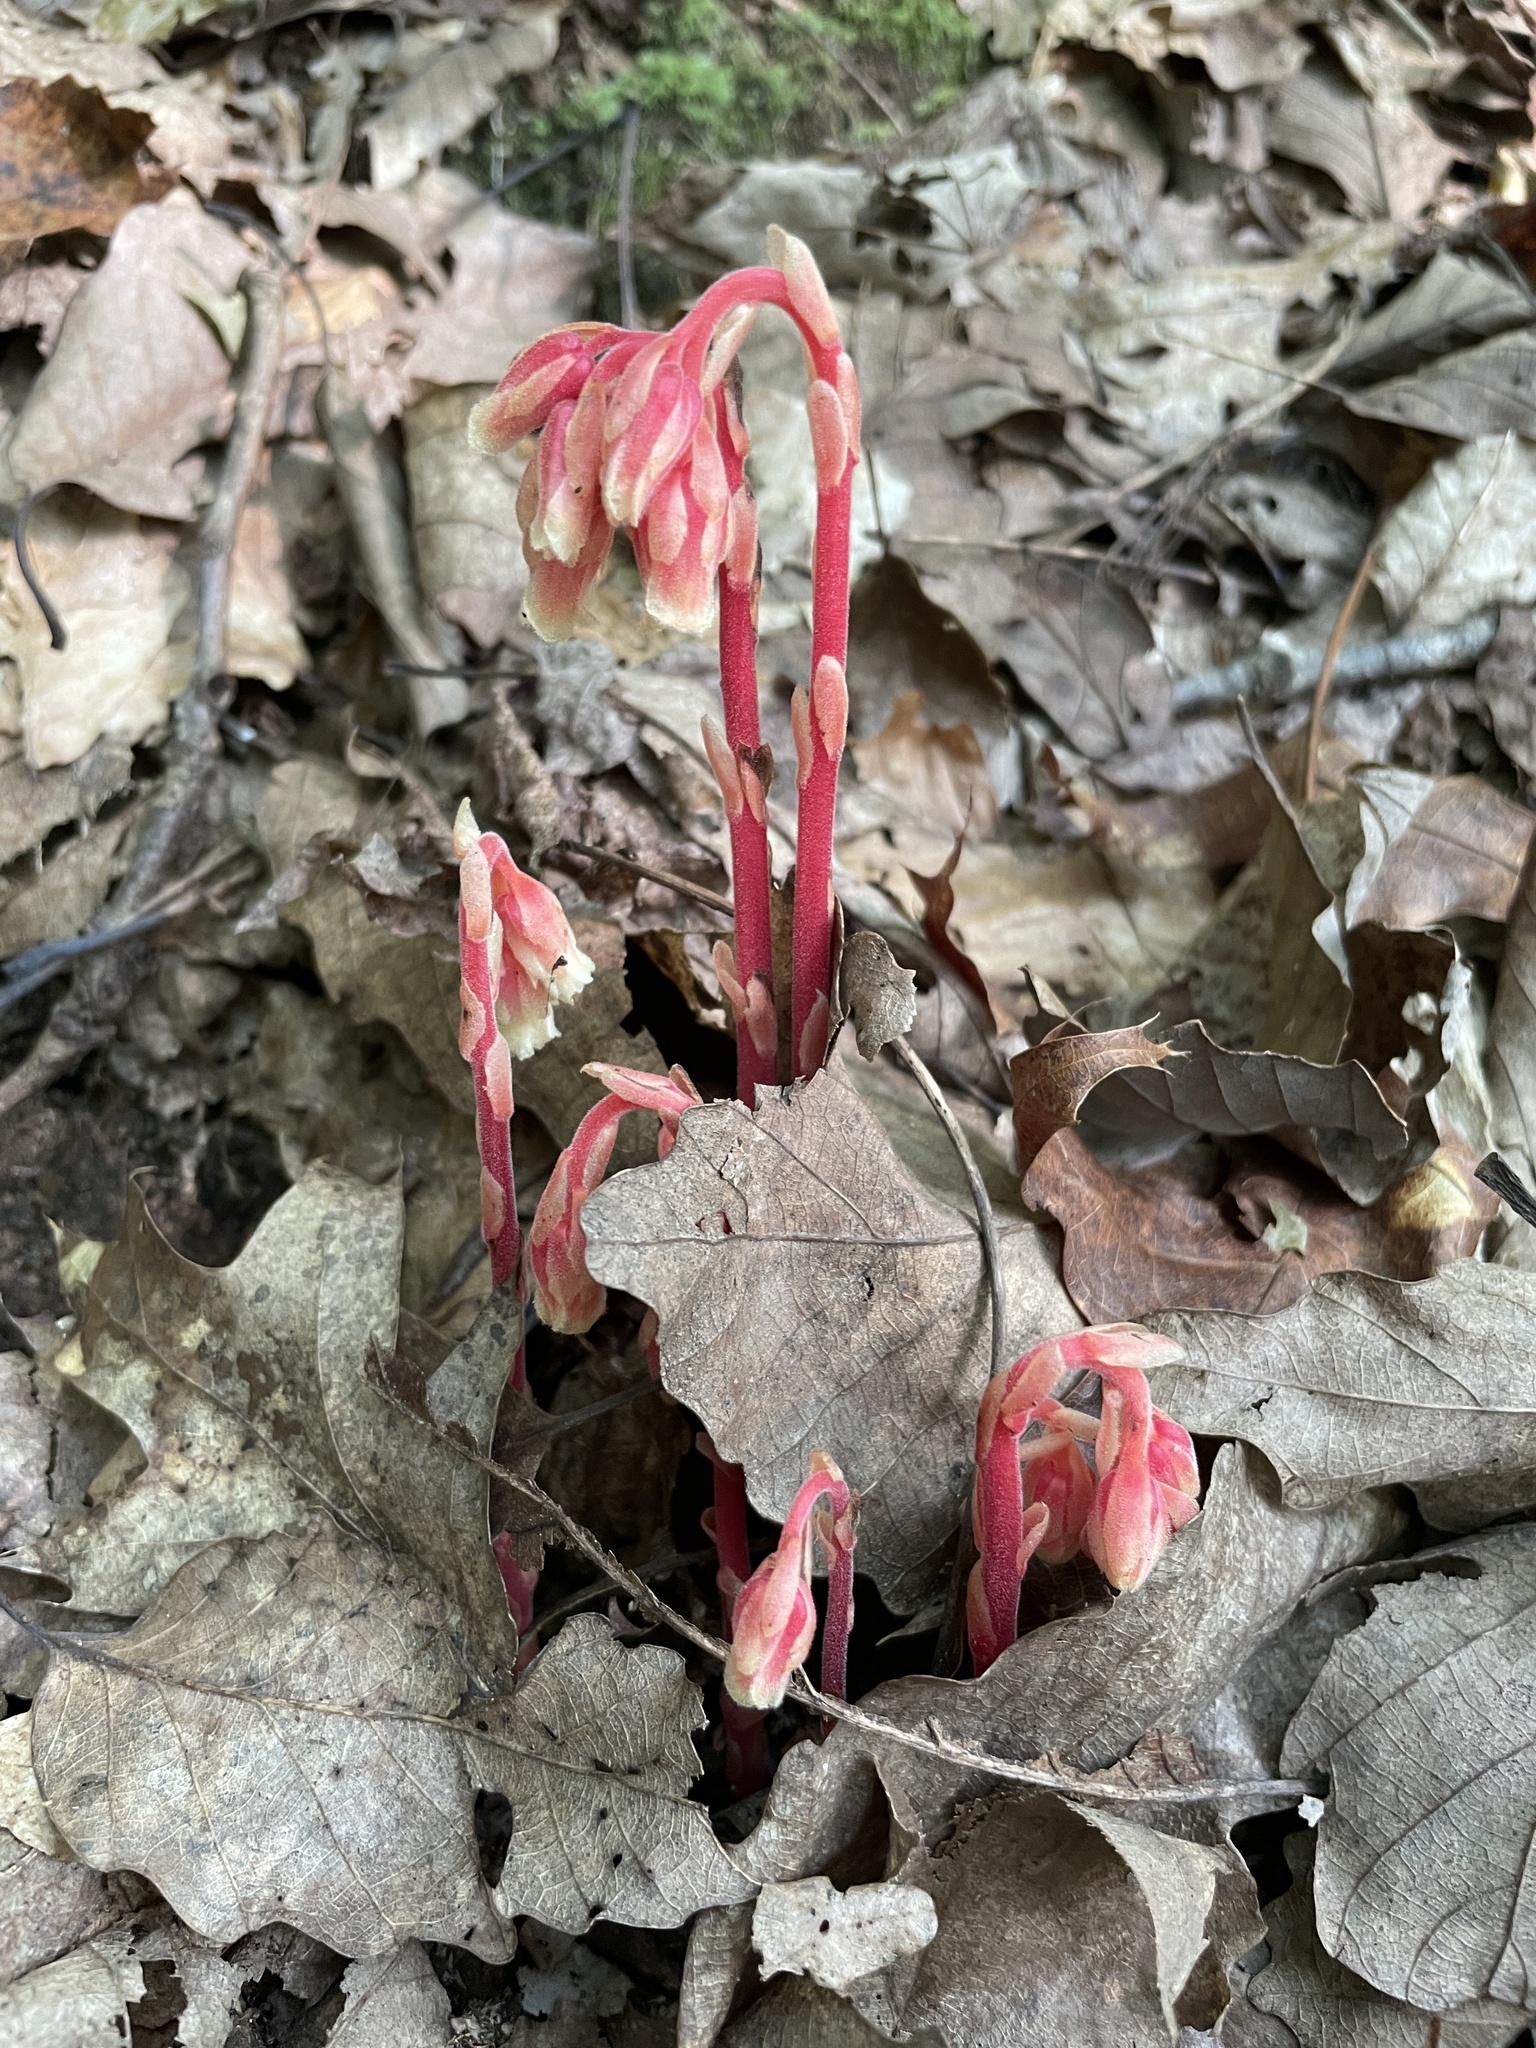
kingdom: Plantae
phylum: Tracheophyta
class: Magnoliopsida
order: Ericales
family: Ericaceae
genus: Hypopitys
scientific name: Hypopitys monotropa
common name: Yellow bird's-nest
